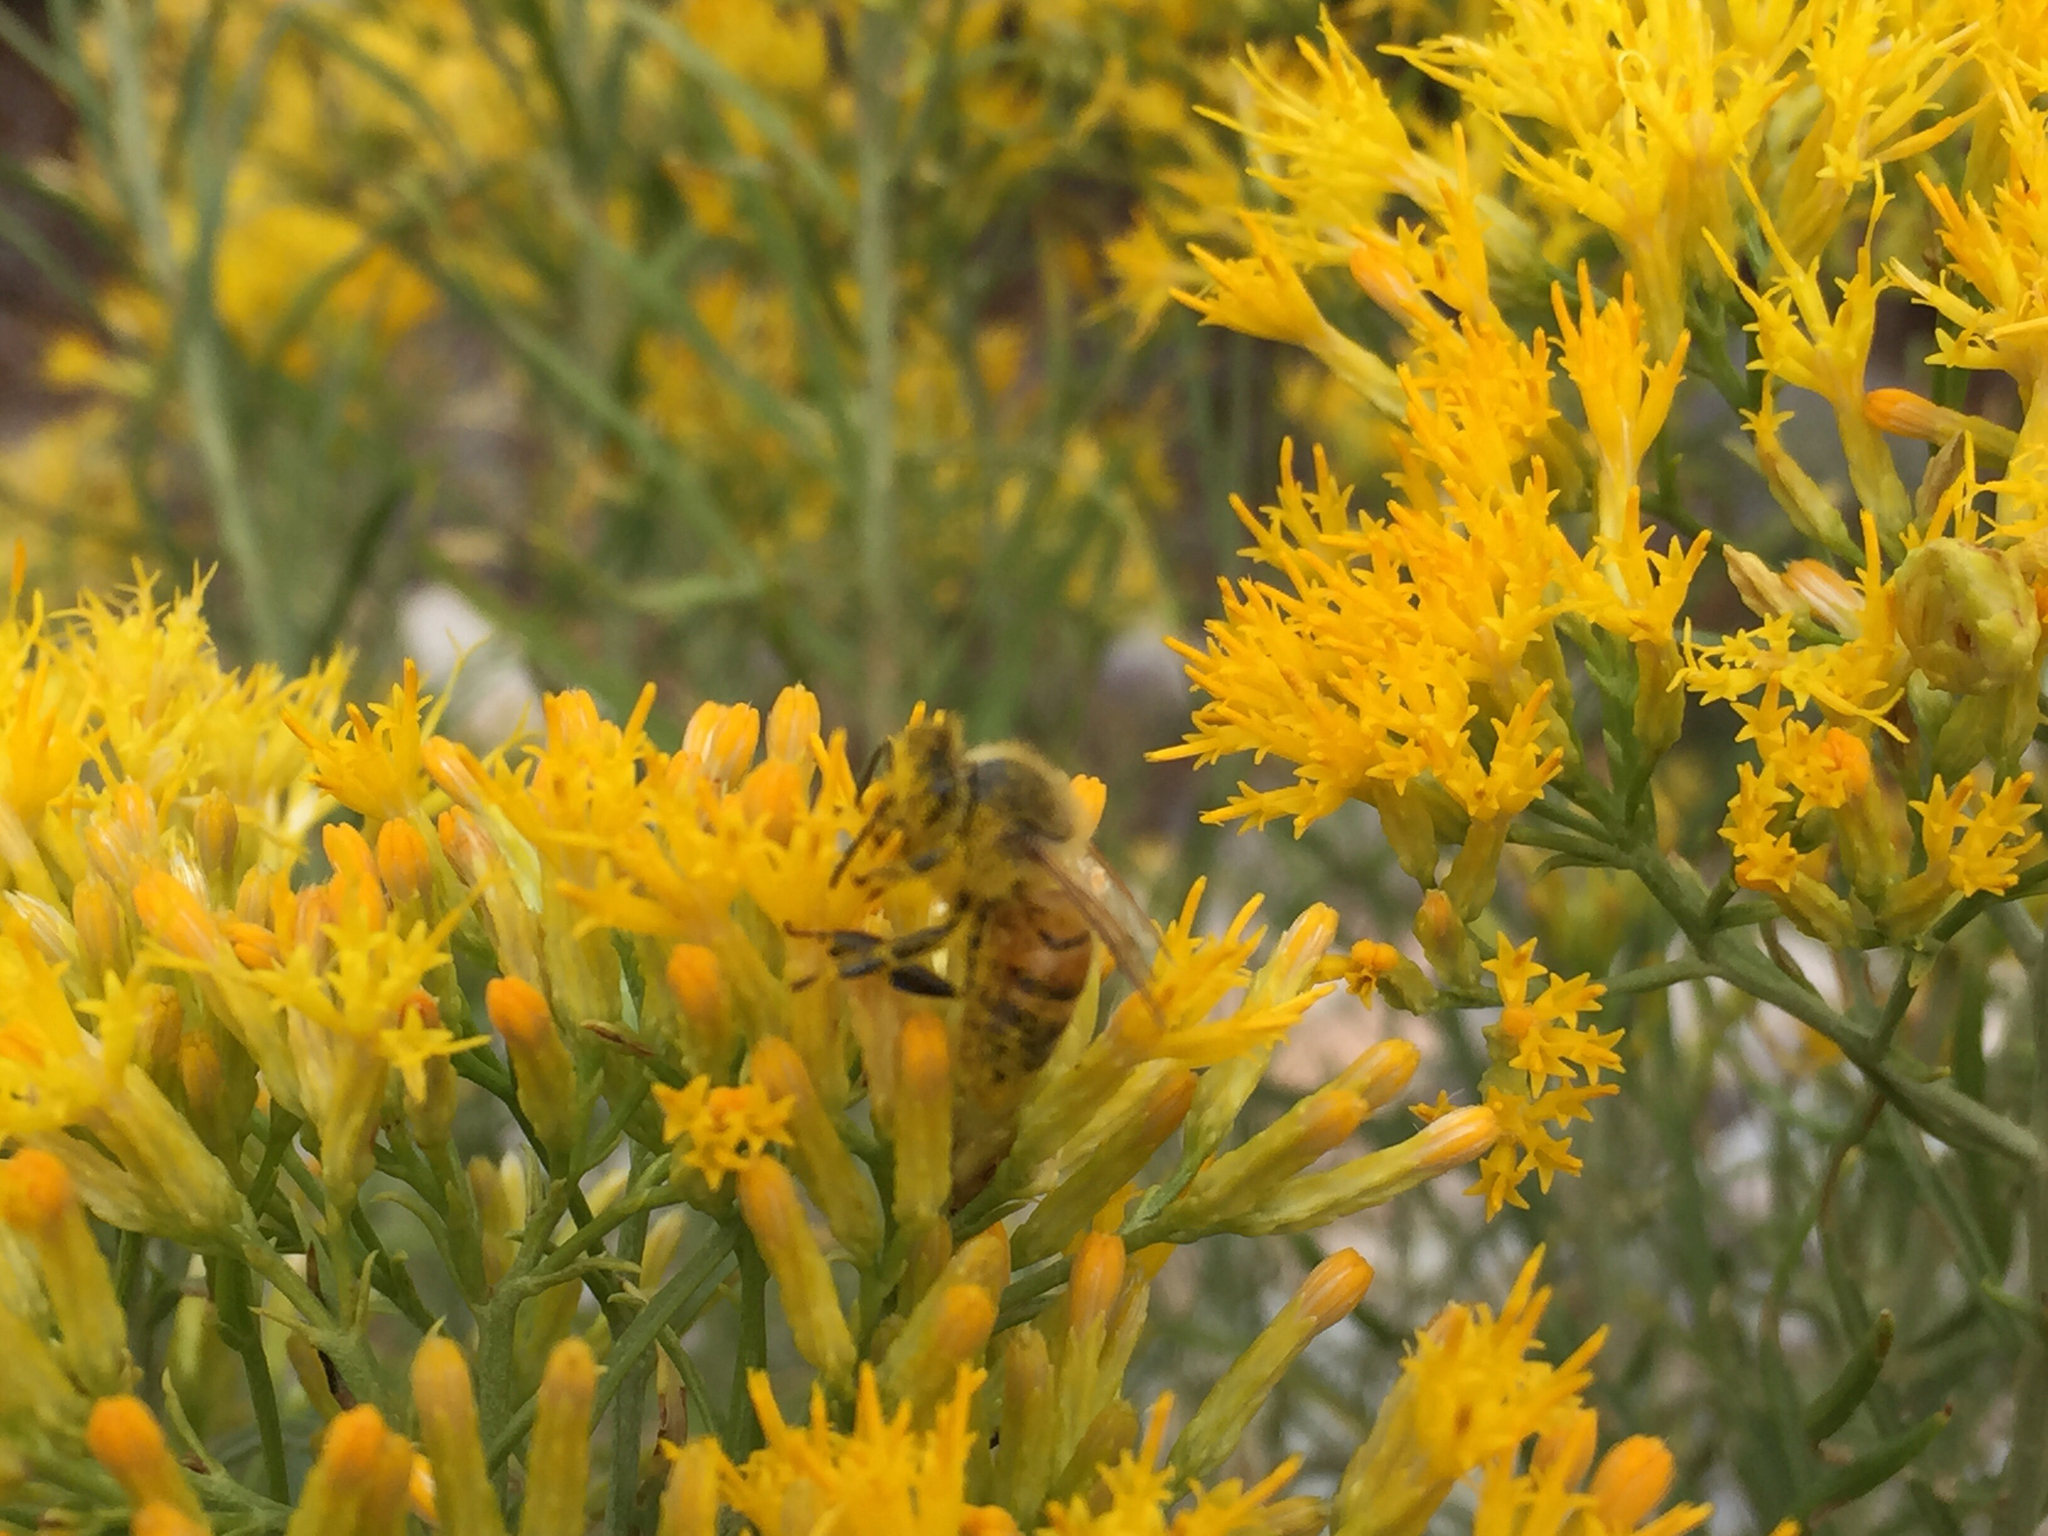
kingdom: Animalia
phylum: Arthropoda
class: Insecta
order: Hymenoptera
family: Apidae
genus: Apis
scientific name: Apis mellifera
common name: Honey bee
